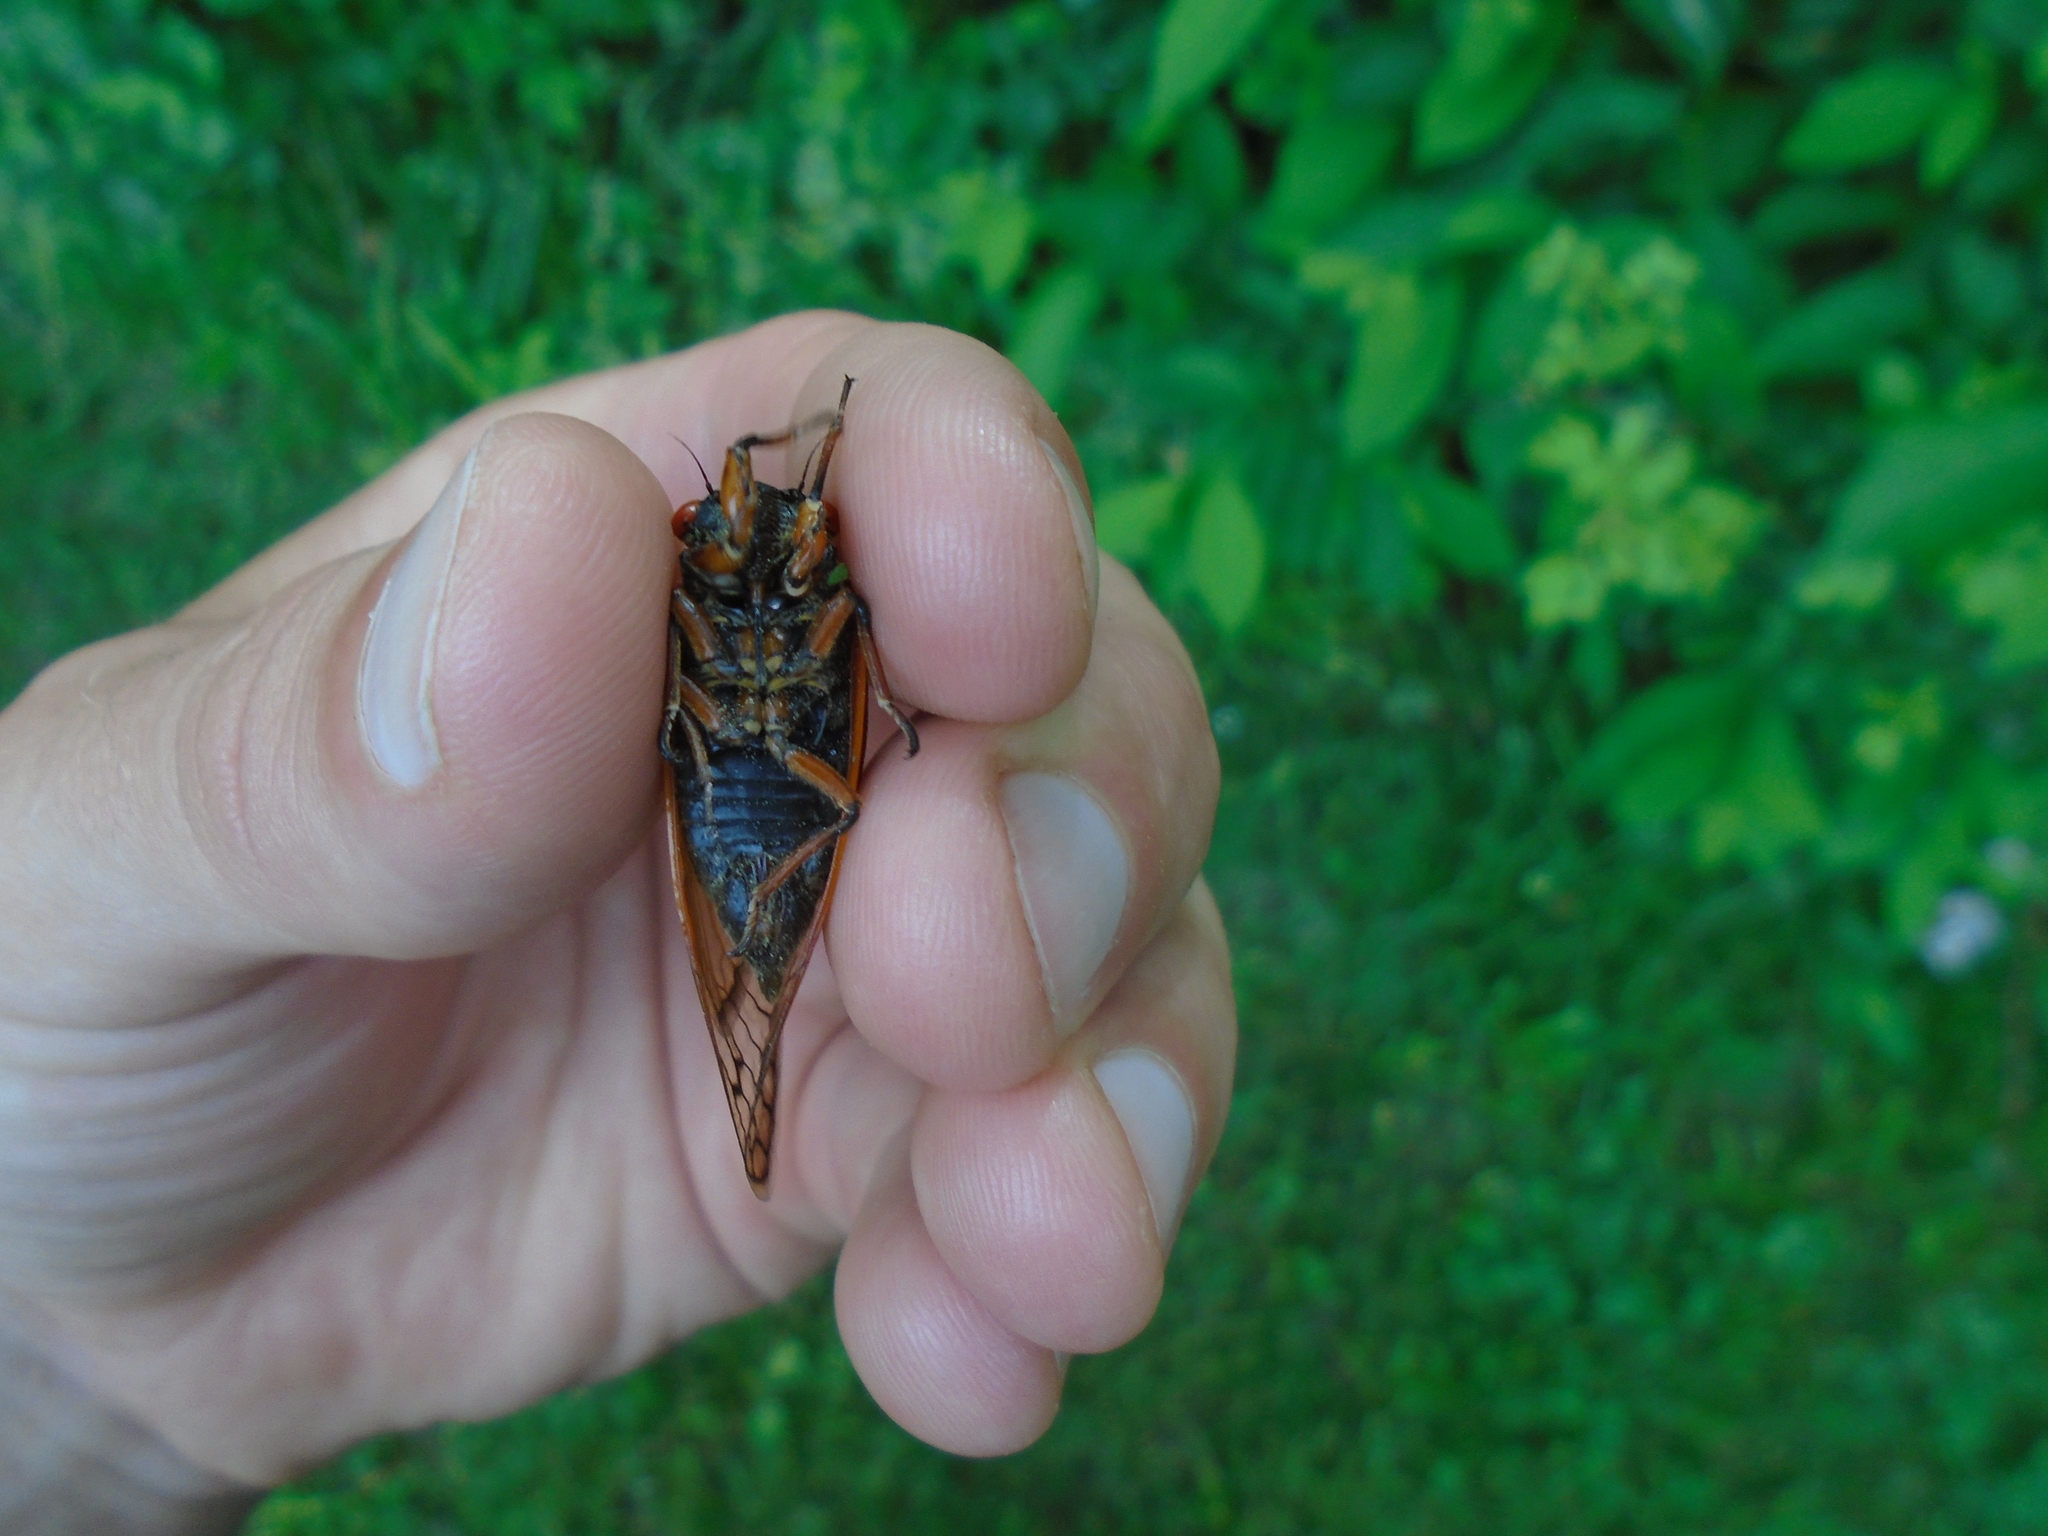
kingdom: Animalia
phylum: Arthropoda
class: Insecta
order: Hemiptera
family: Cicadidae
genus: Magicicada
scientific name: Magicicada cassini
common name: Cassin's 17-year cicada
